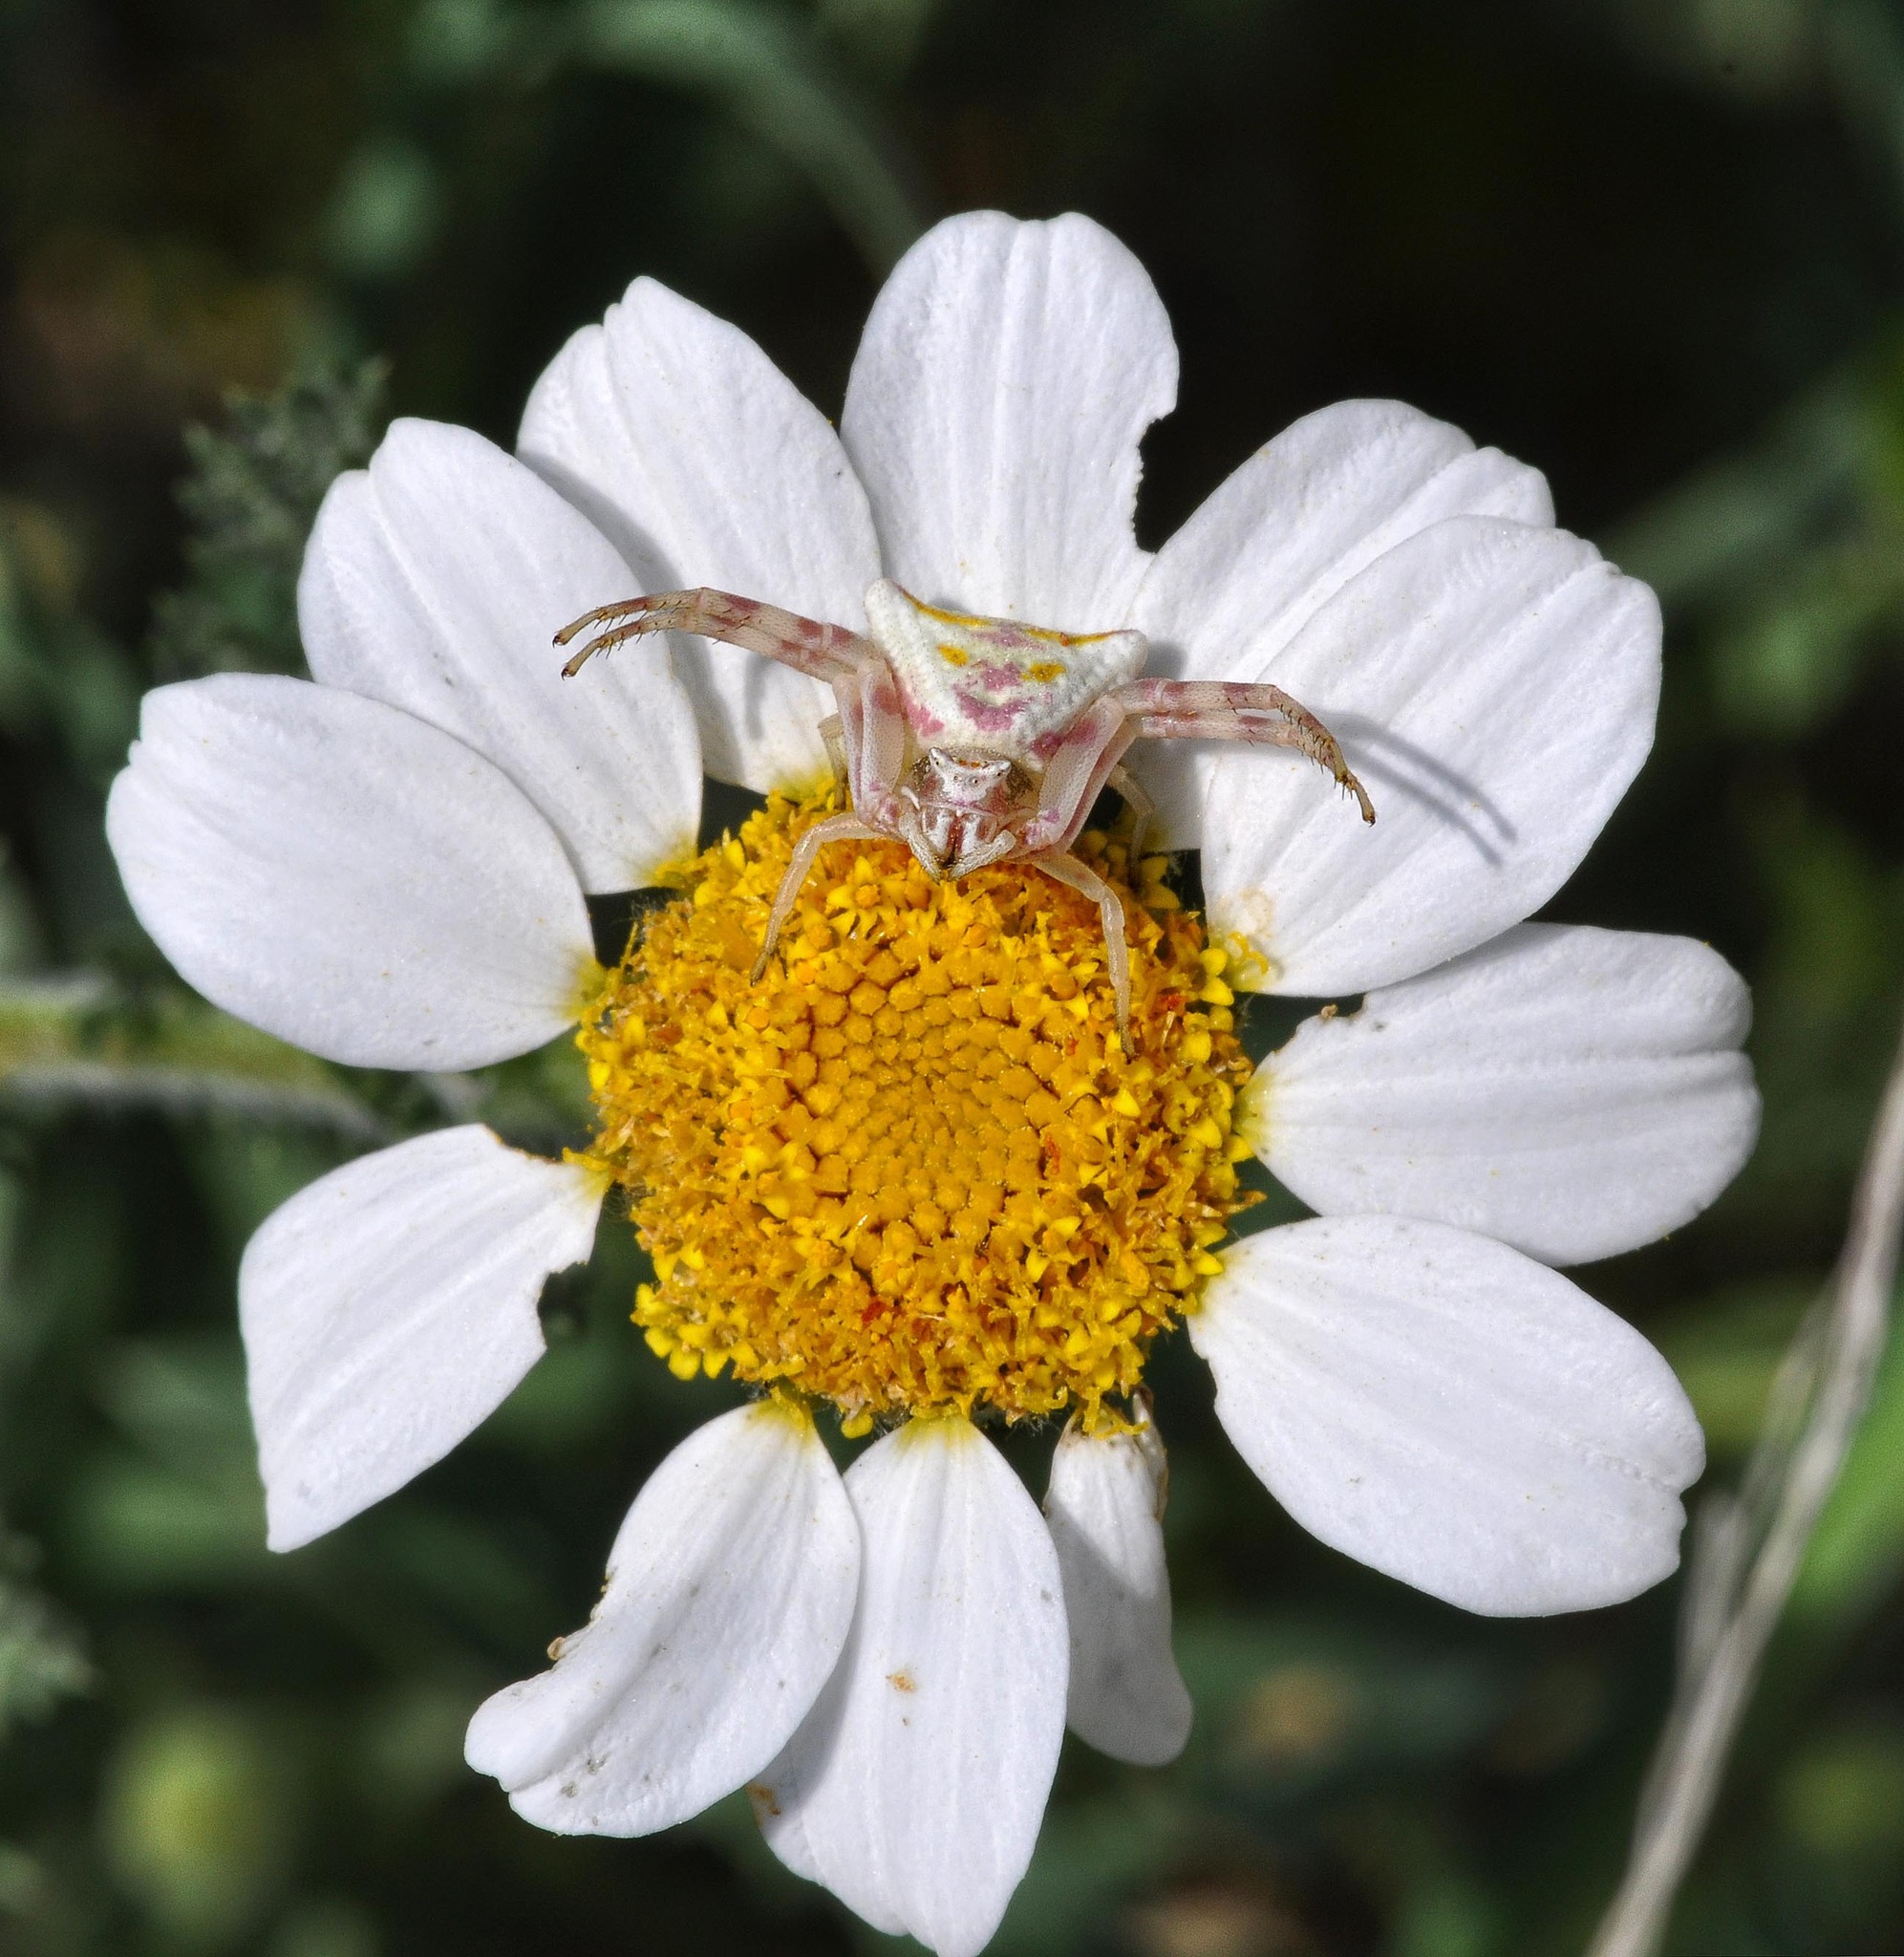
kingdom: Animalia
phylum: Arthropoda
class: Arachnida
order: Araneae
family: Thomisidae
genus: Thomisus
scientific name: Thomisus onustus
